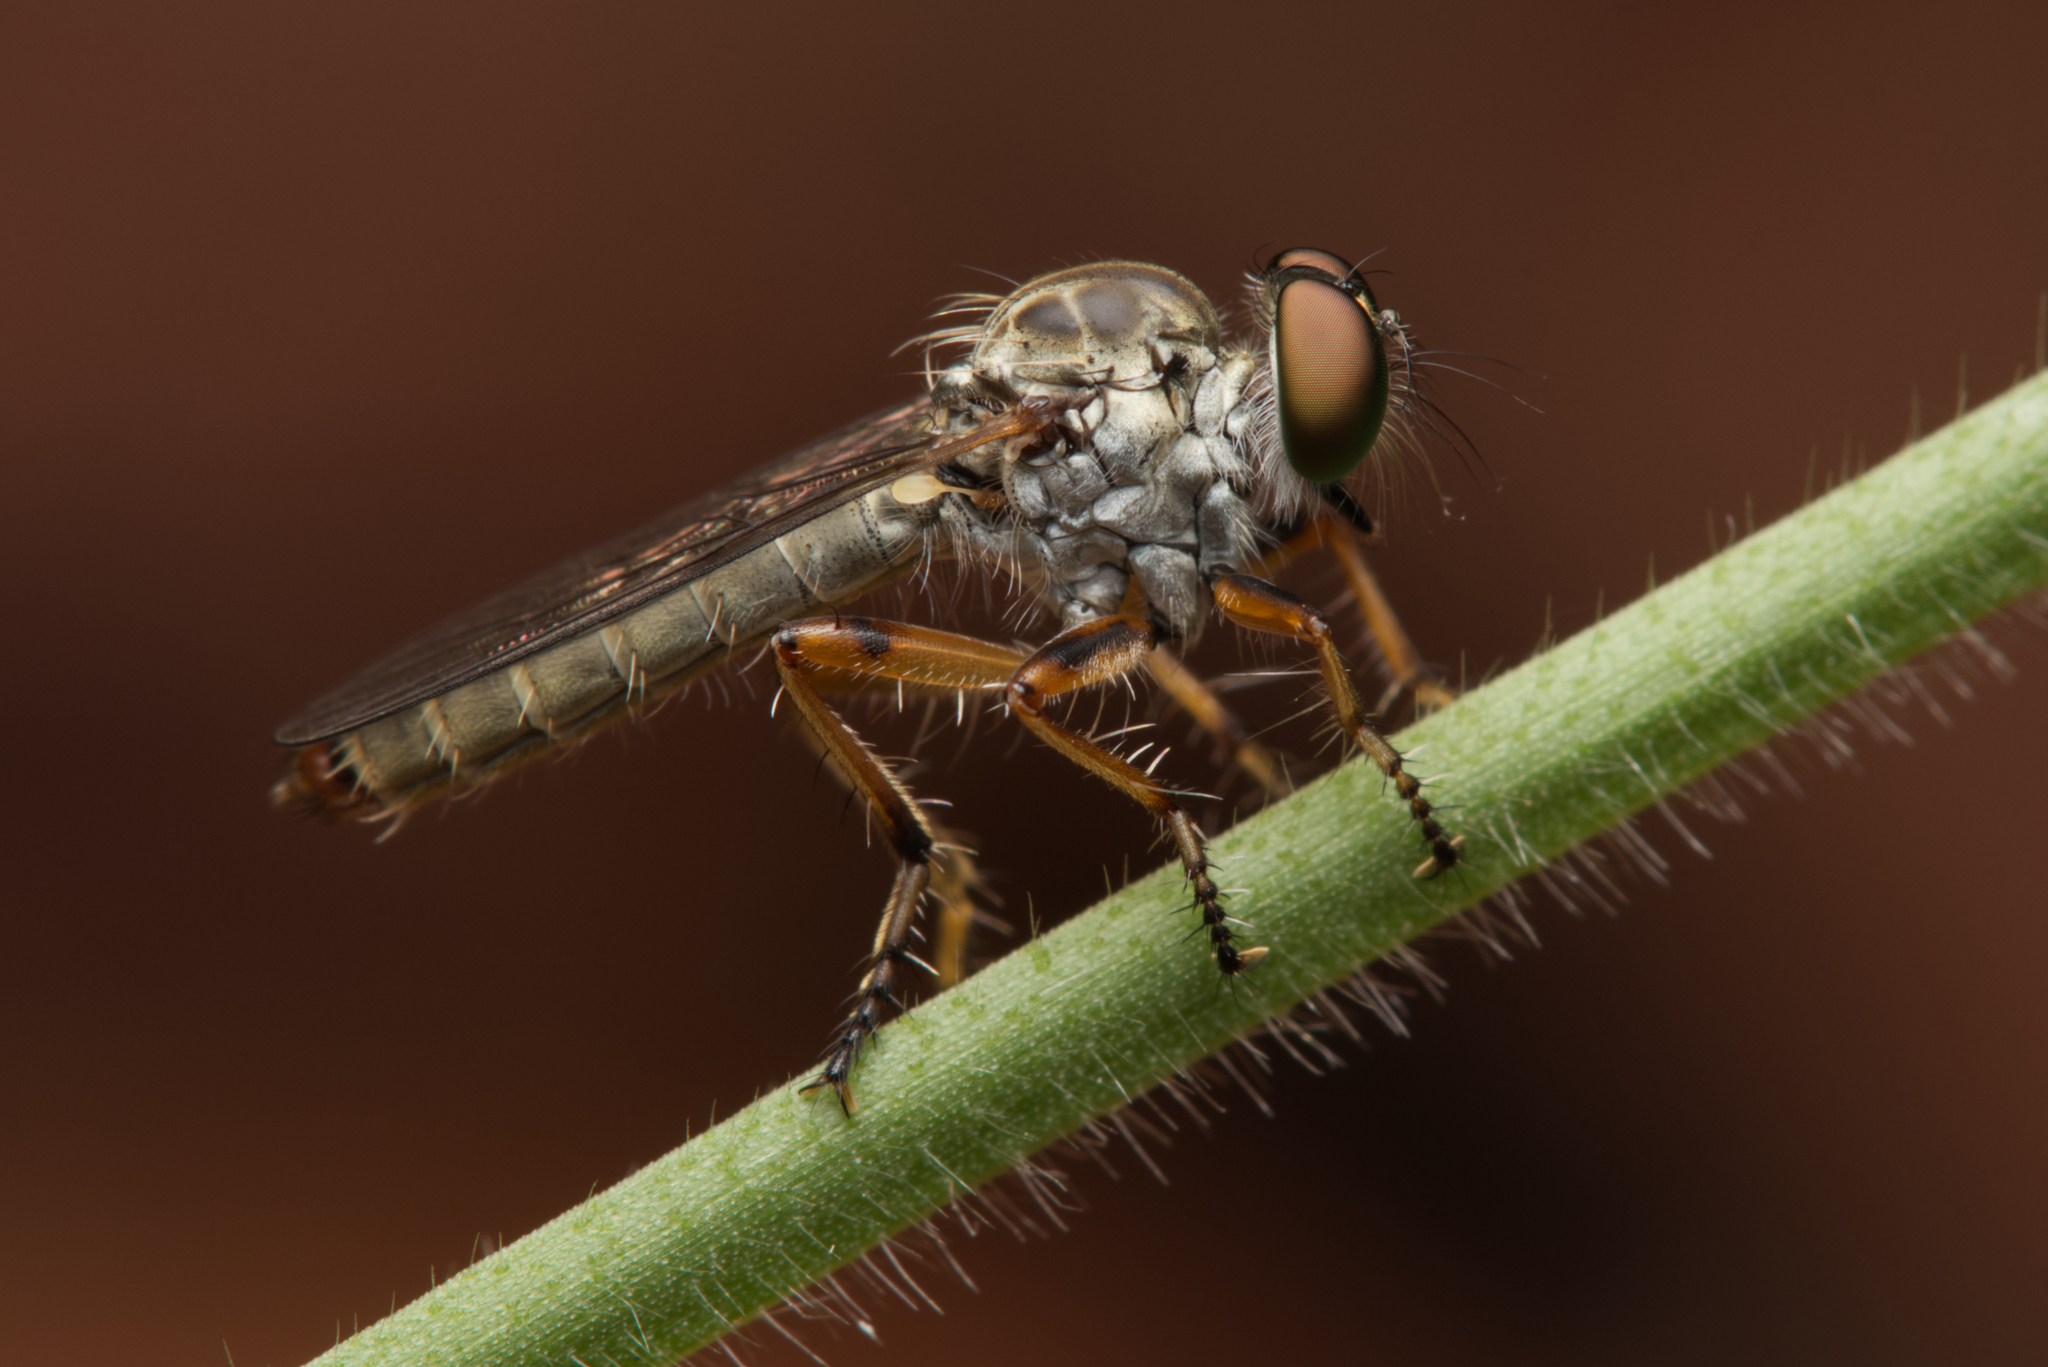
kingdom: Animalia
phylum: Arthropoda
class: Insecta
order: Diptera
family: Asilidae
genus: Ommatius
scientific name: Ommatius flavicaudus
